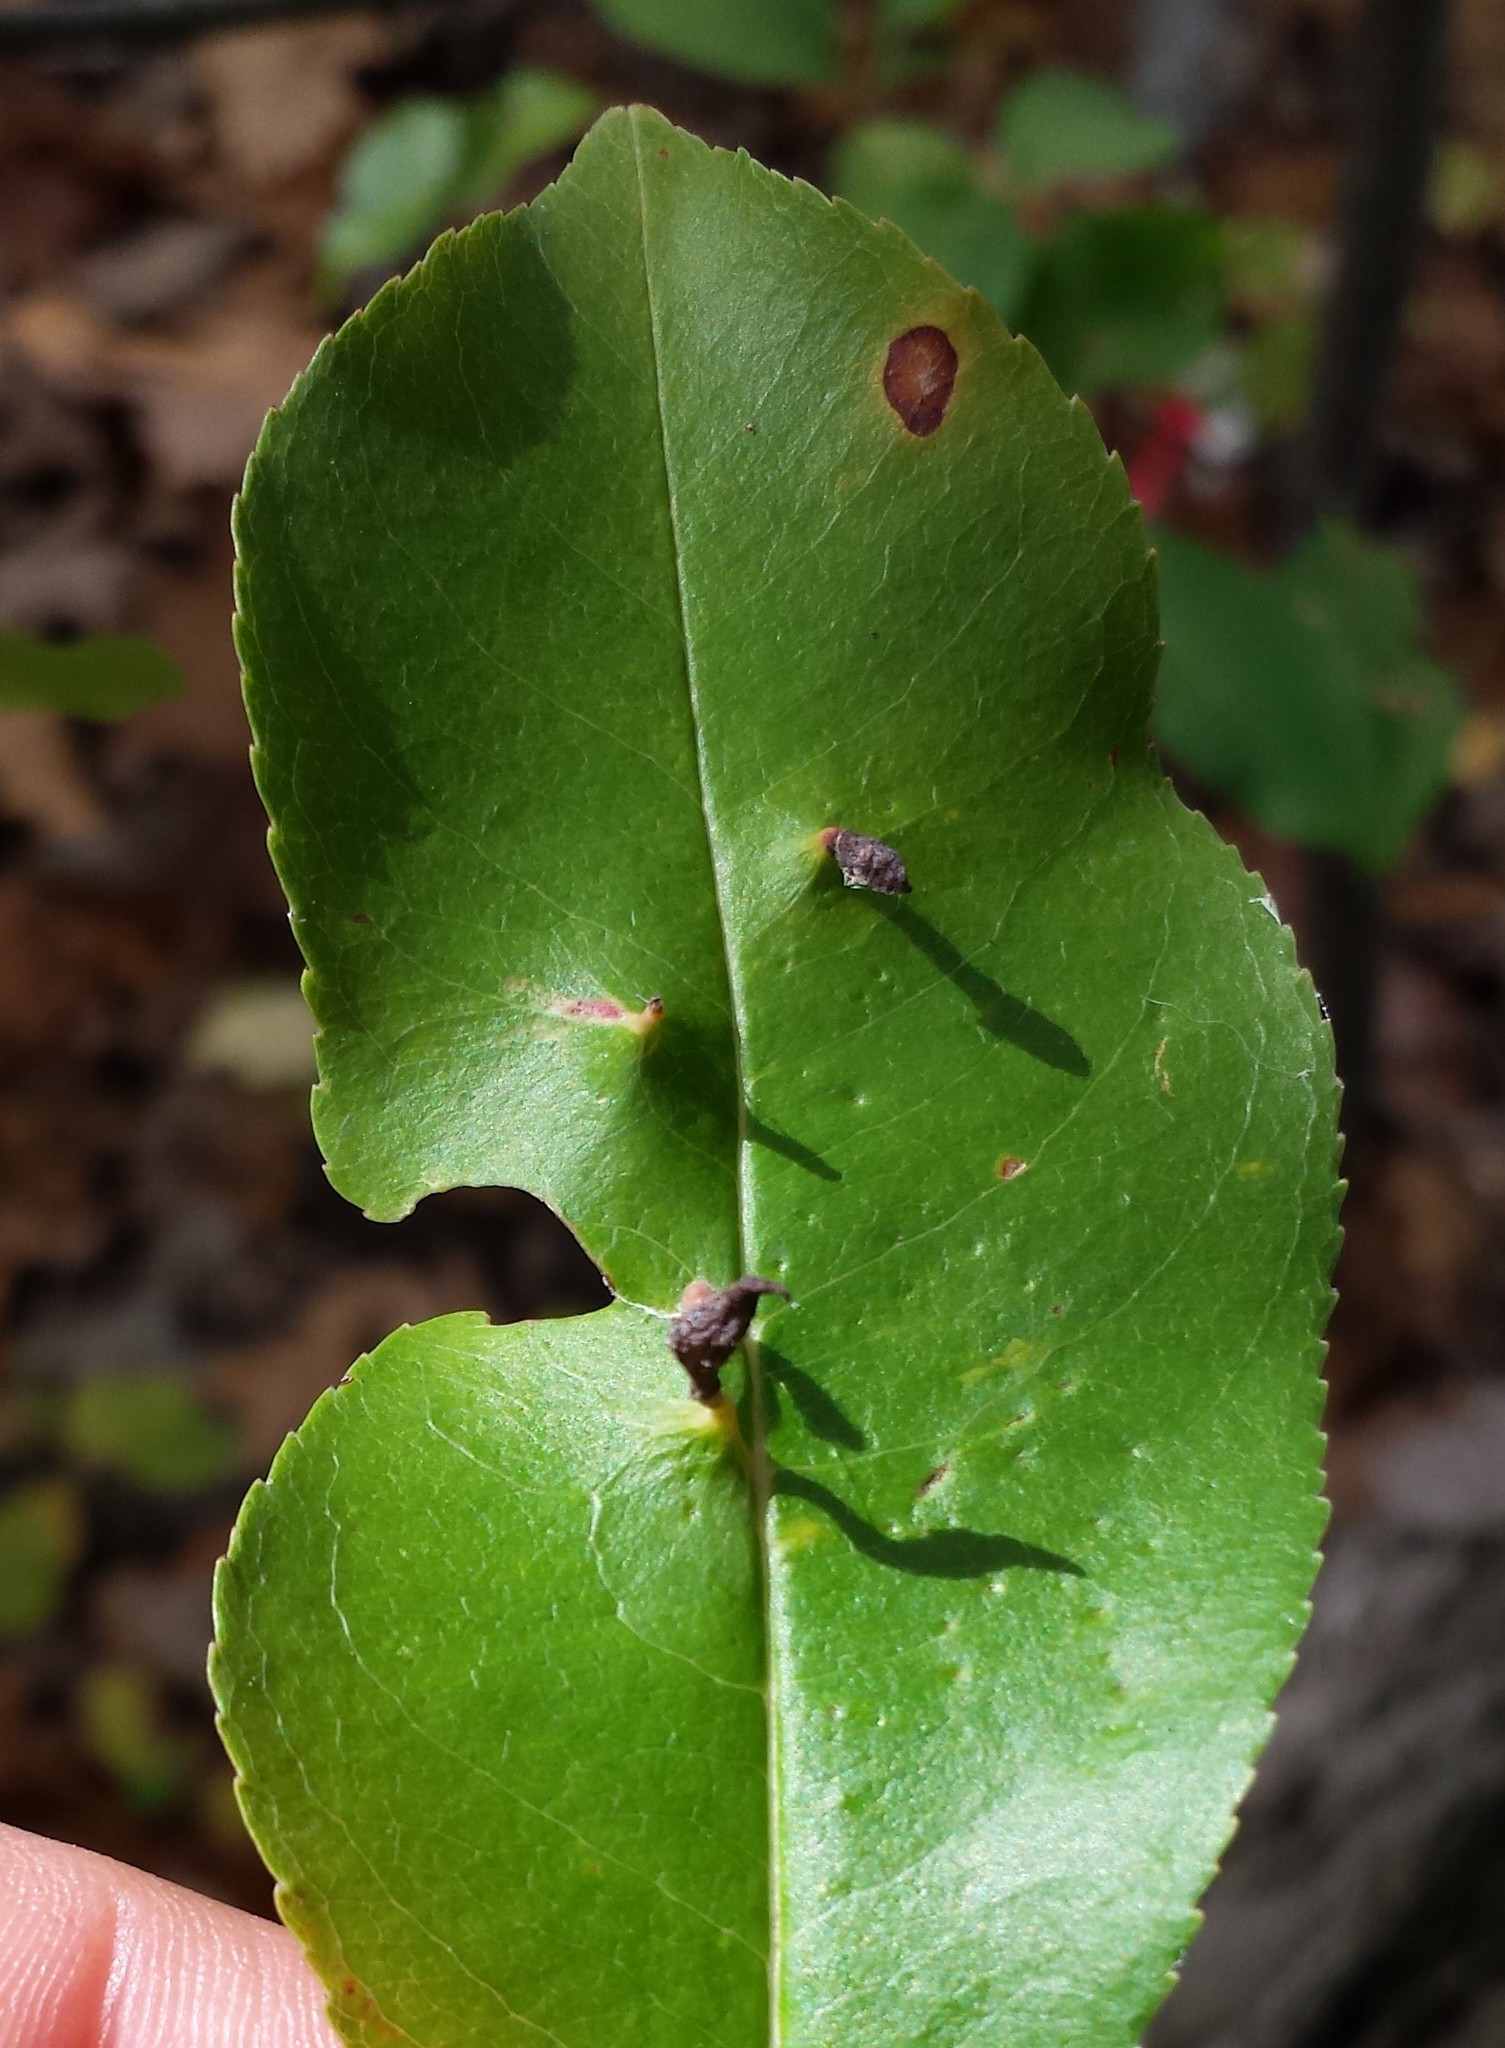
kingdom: Animalia
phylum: Arthropoda
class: Arachnida
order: Trombidiformes
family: Eriophyidae
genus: Eriophyes
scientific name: Eriophyes
